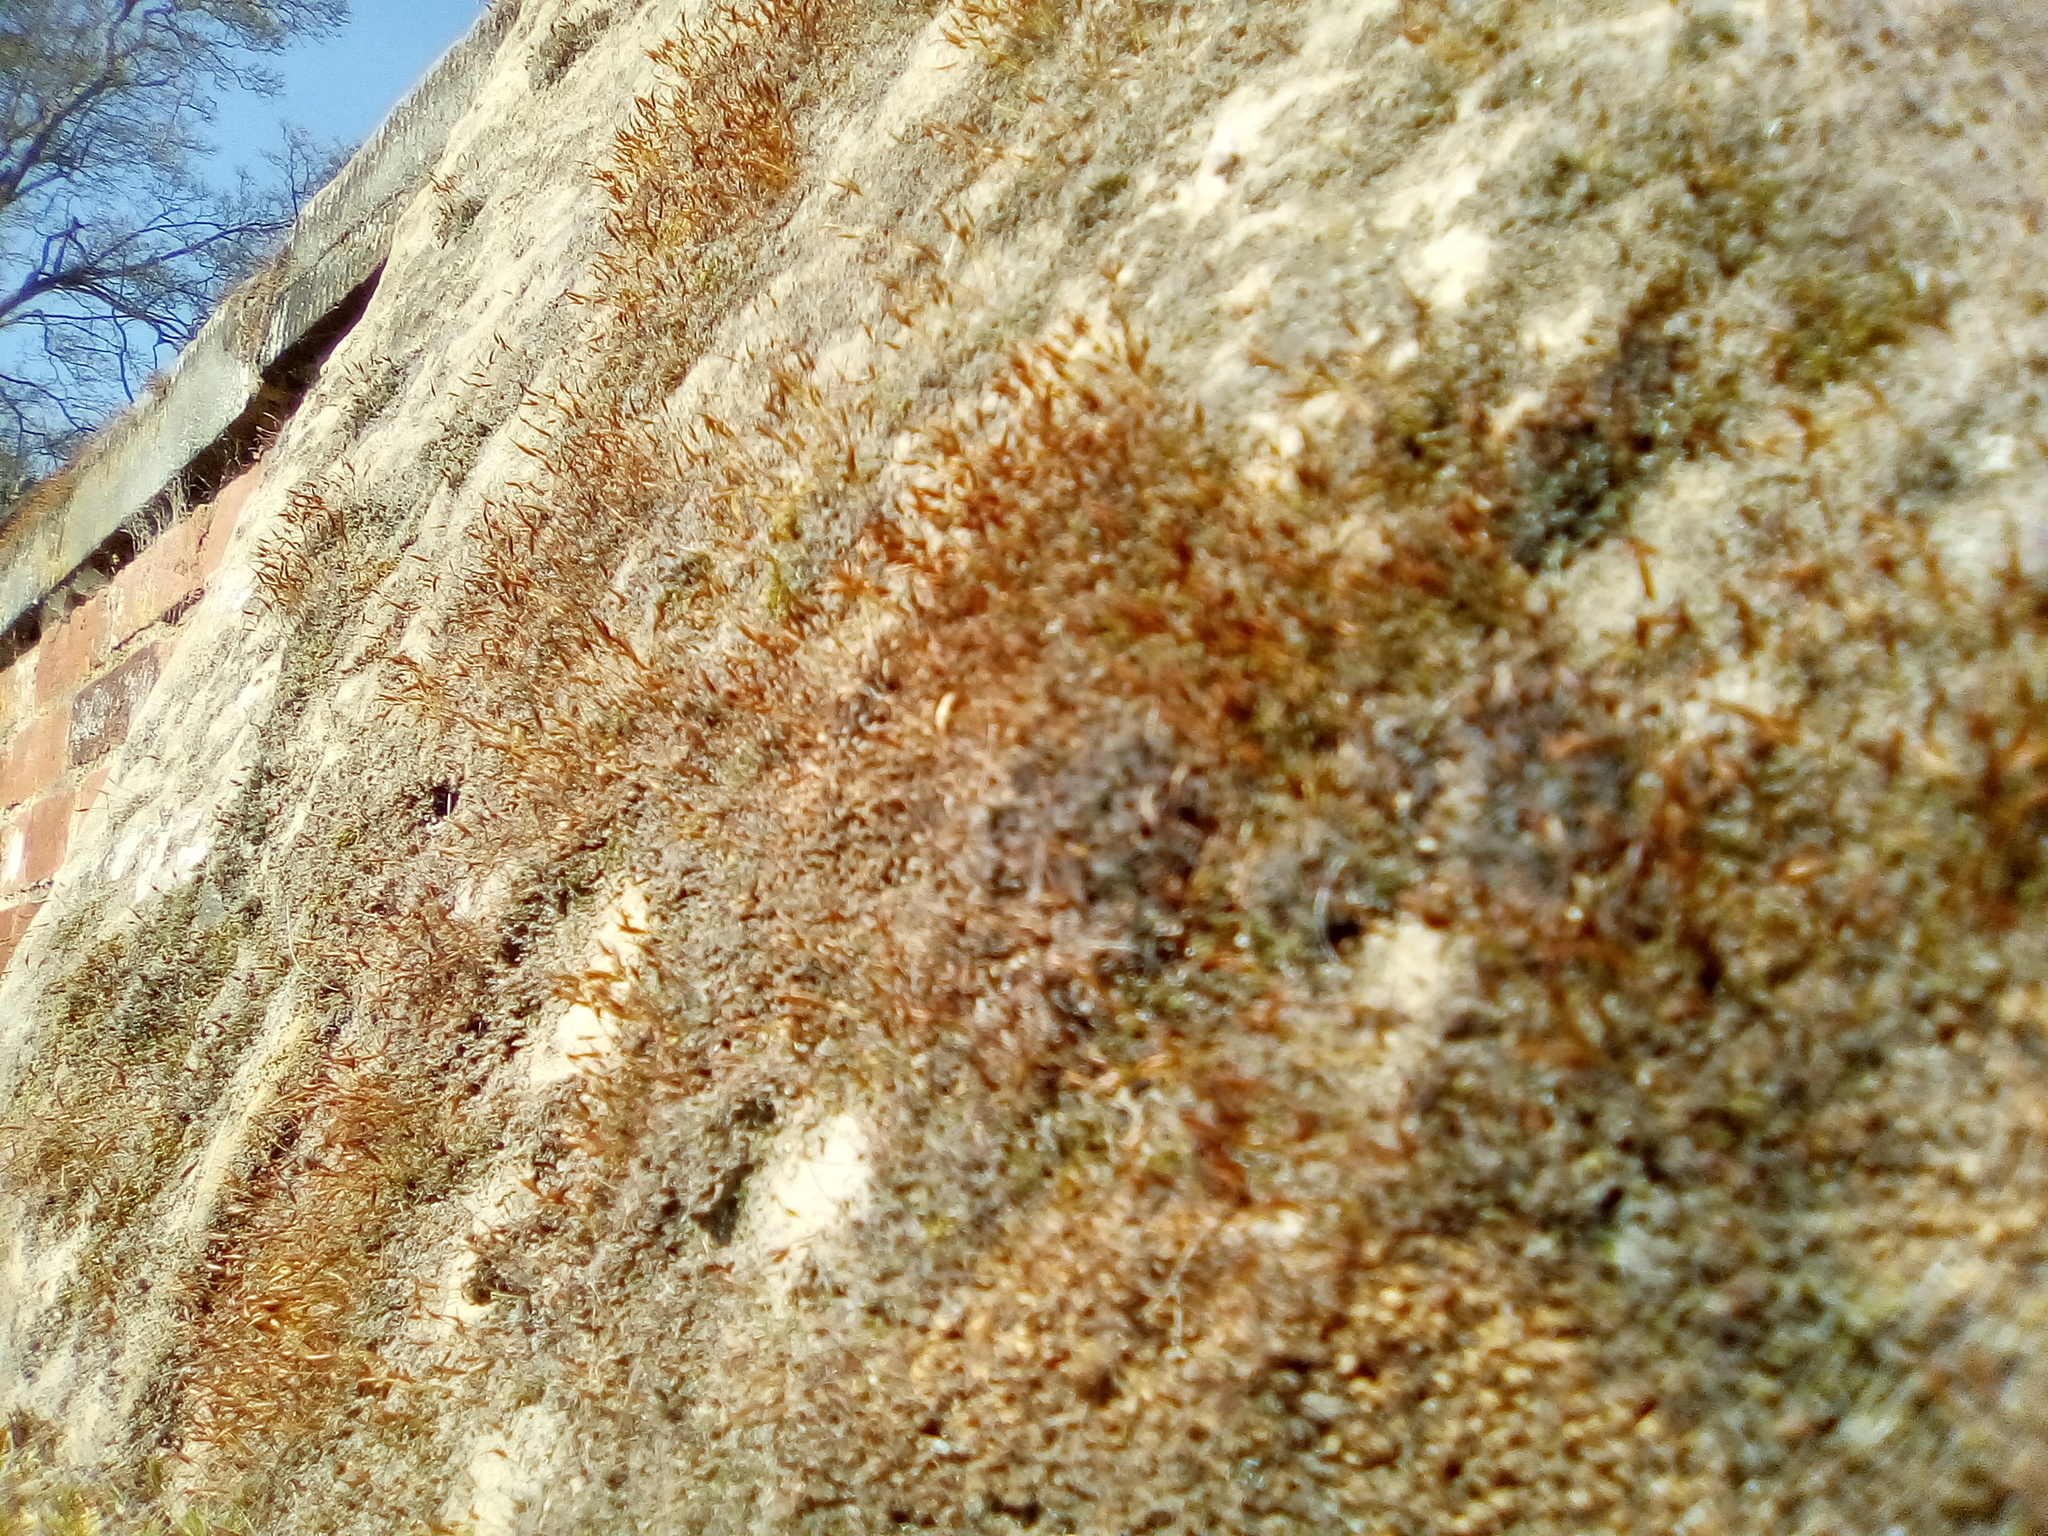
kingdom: Plantae
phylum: Bryophyta
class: Bryopsida
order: Pottiales
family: Pottiaceae
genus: Tortula
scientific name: Tortula muralis
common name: Wall screw-moss
